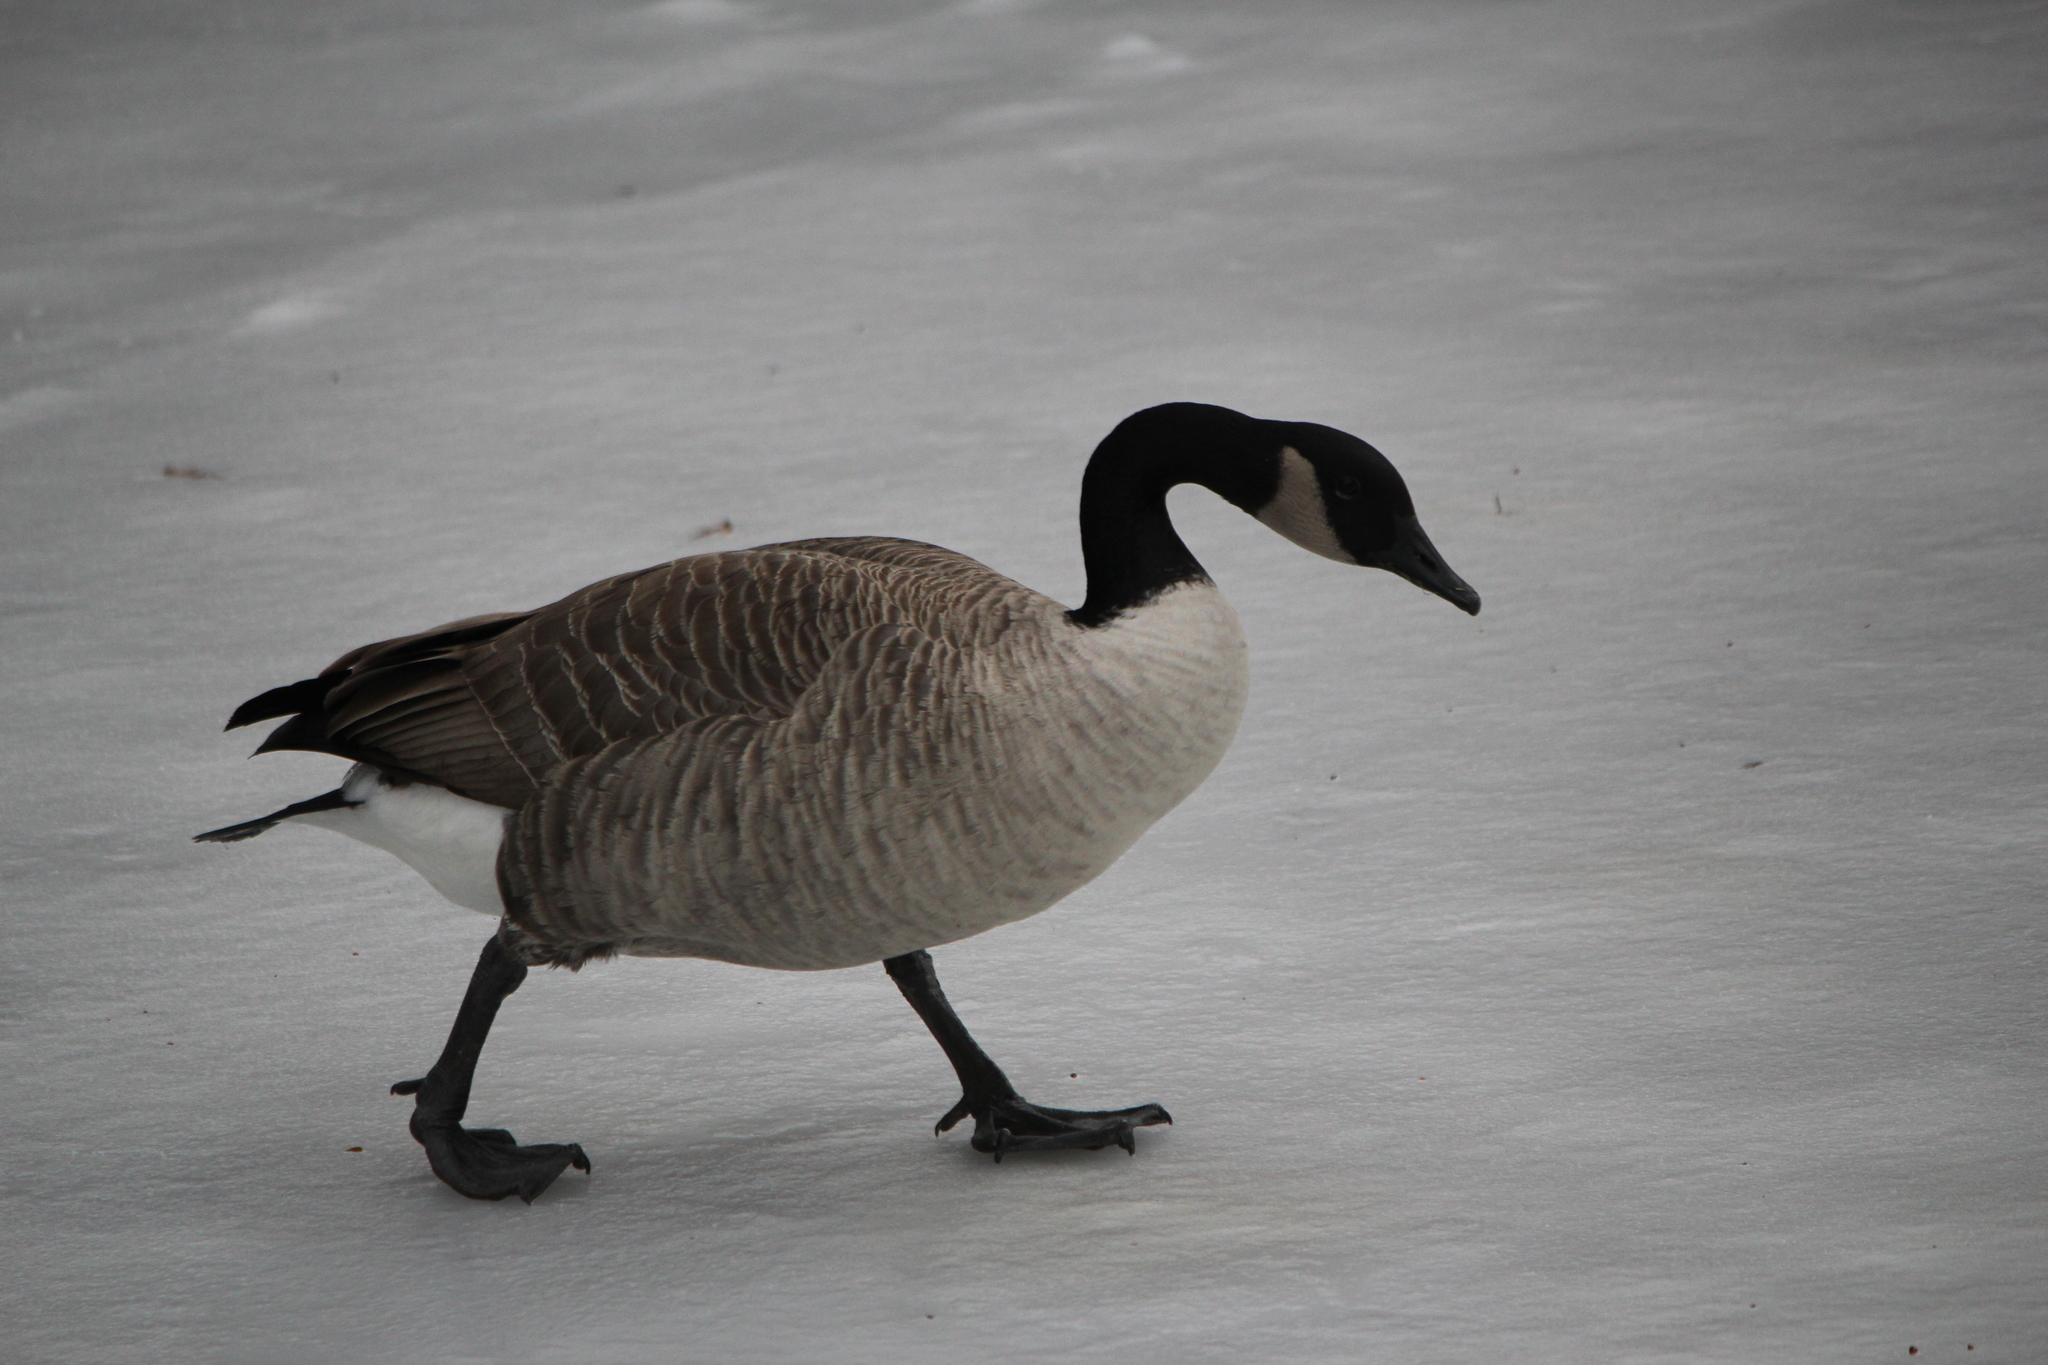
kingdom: Animalia
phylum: Chordata
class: Aves
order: Anseriformes
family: Anatidae
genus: Branta
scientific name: Branta canadensis
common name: Canada goose
